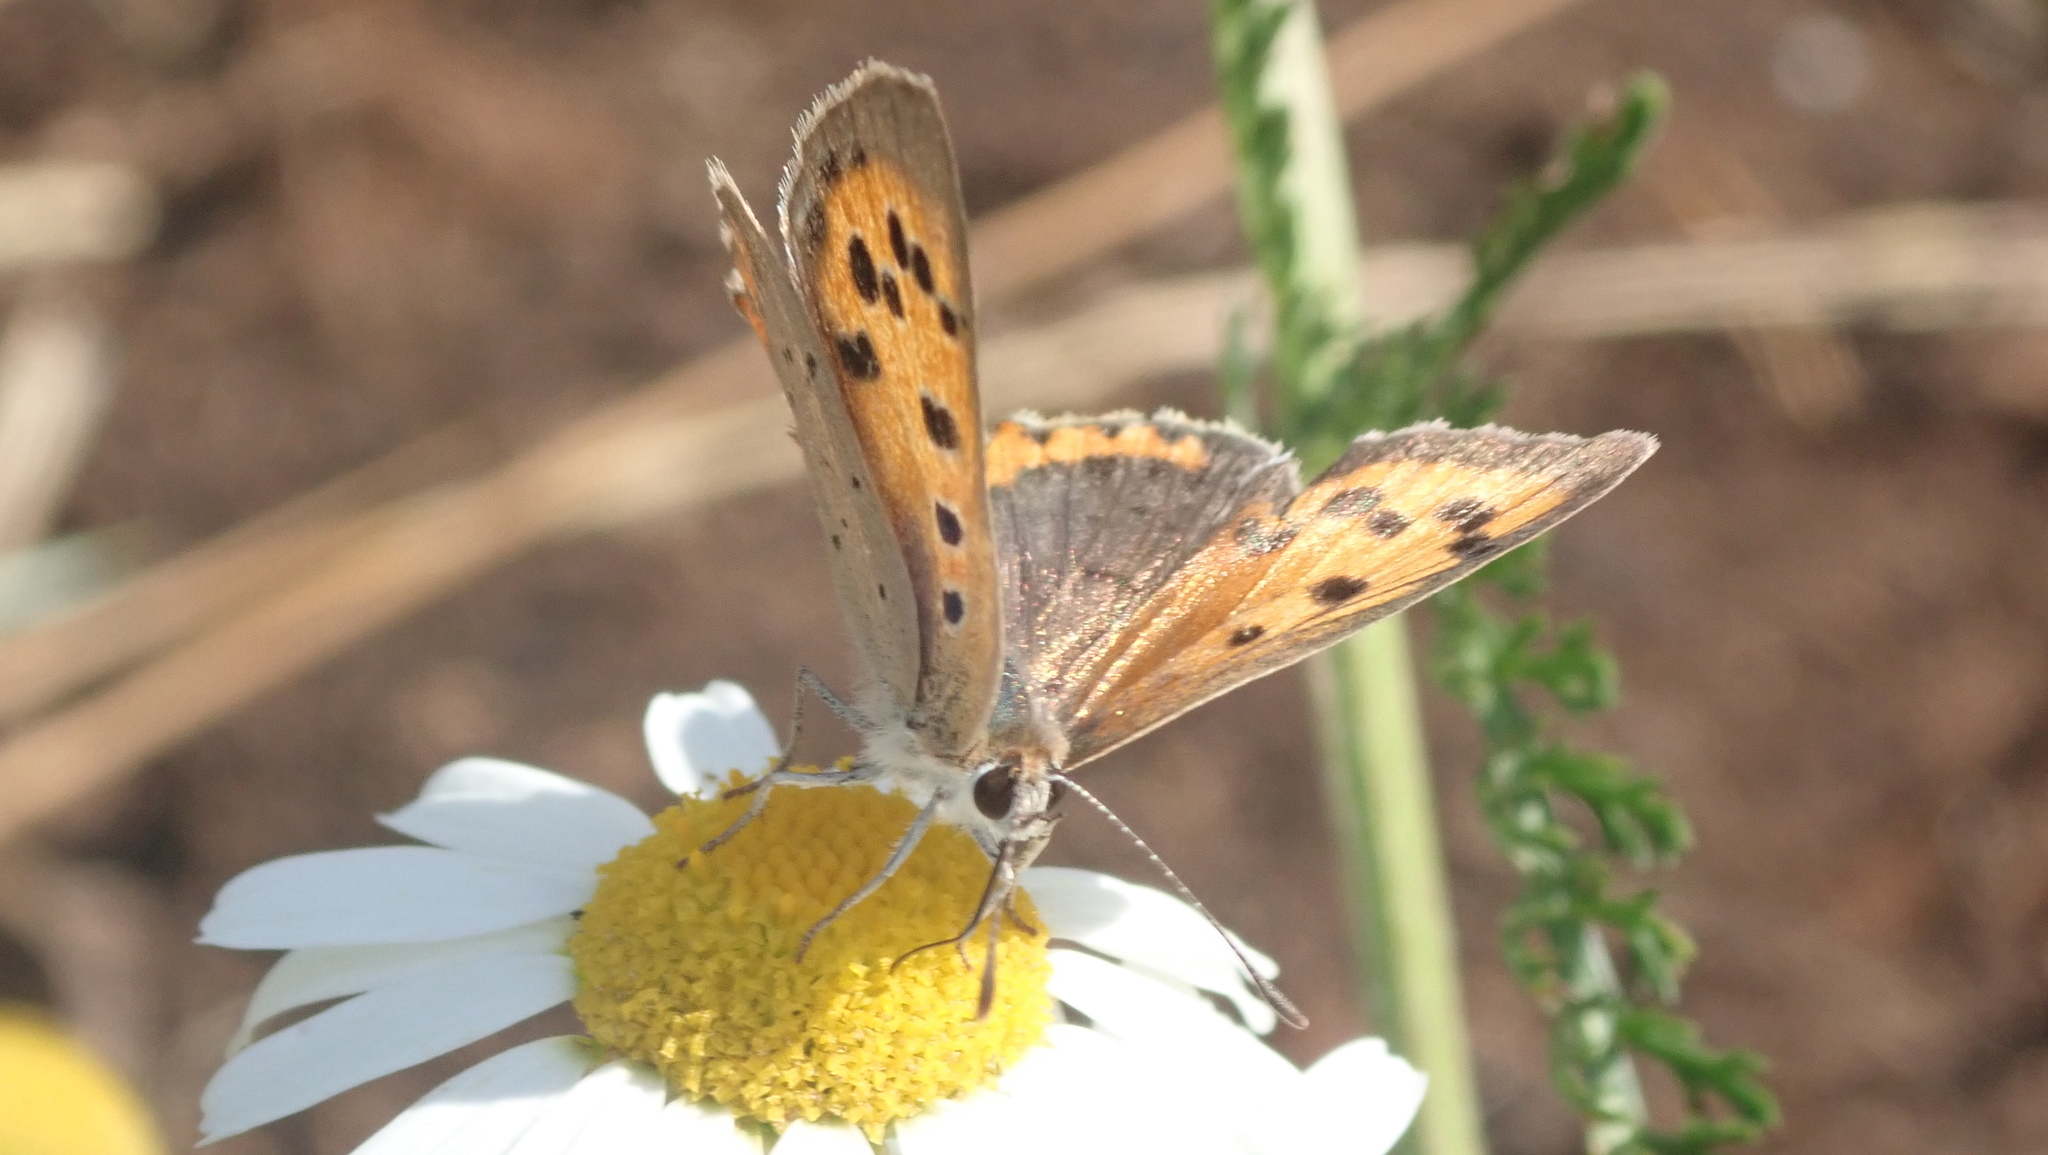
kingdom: Animalia
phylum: Arthropoda
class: Insecta
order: Lepidoptera
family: Lycaenidae
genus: Lycaena
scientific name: Lycaena phlaeas
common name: Small copper
